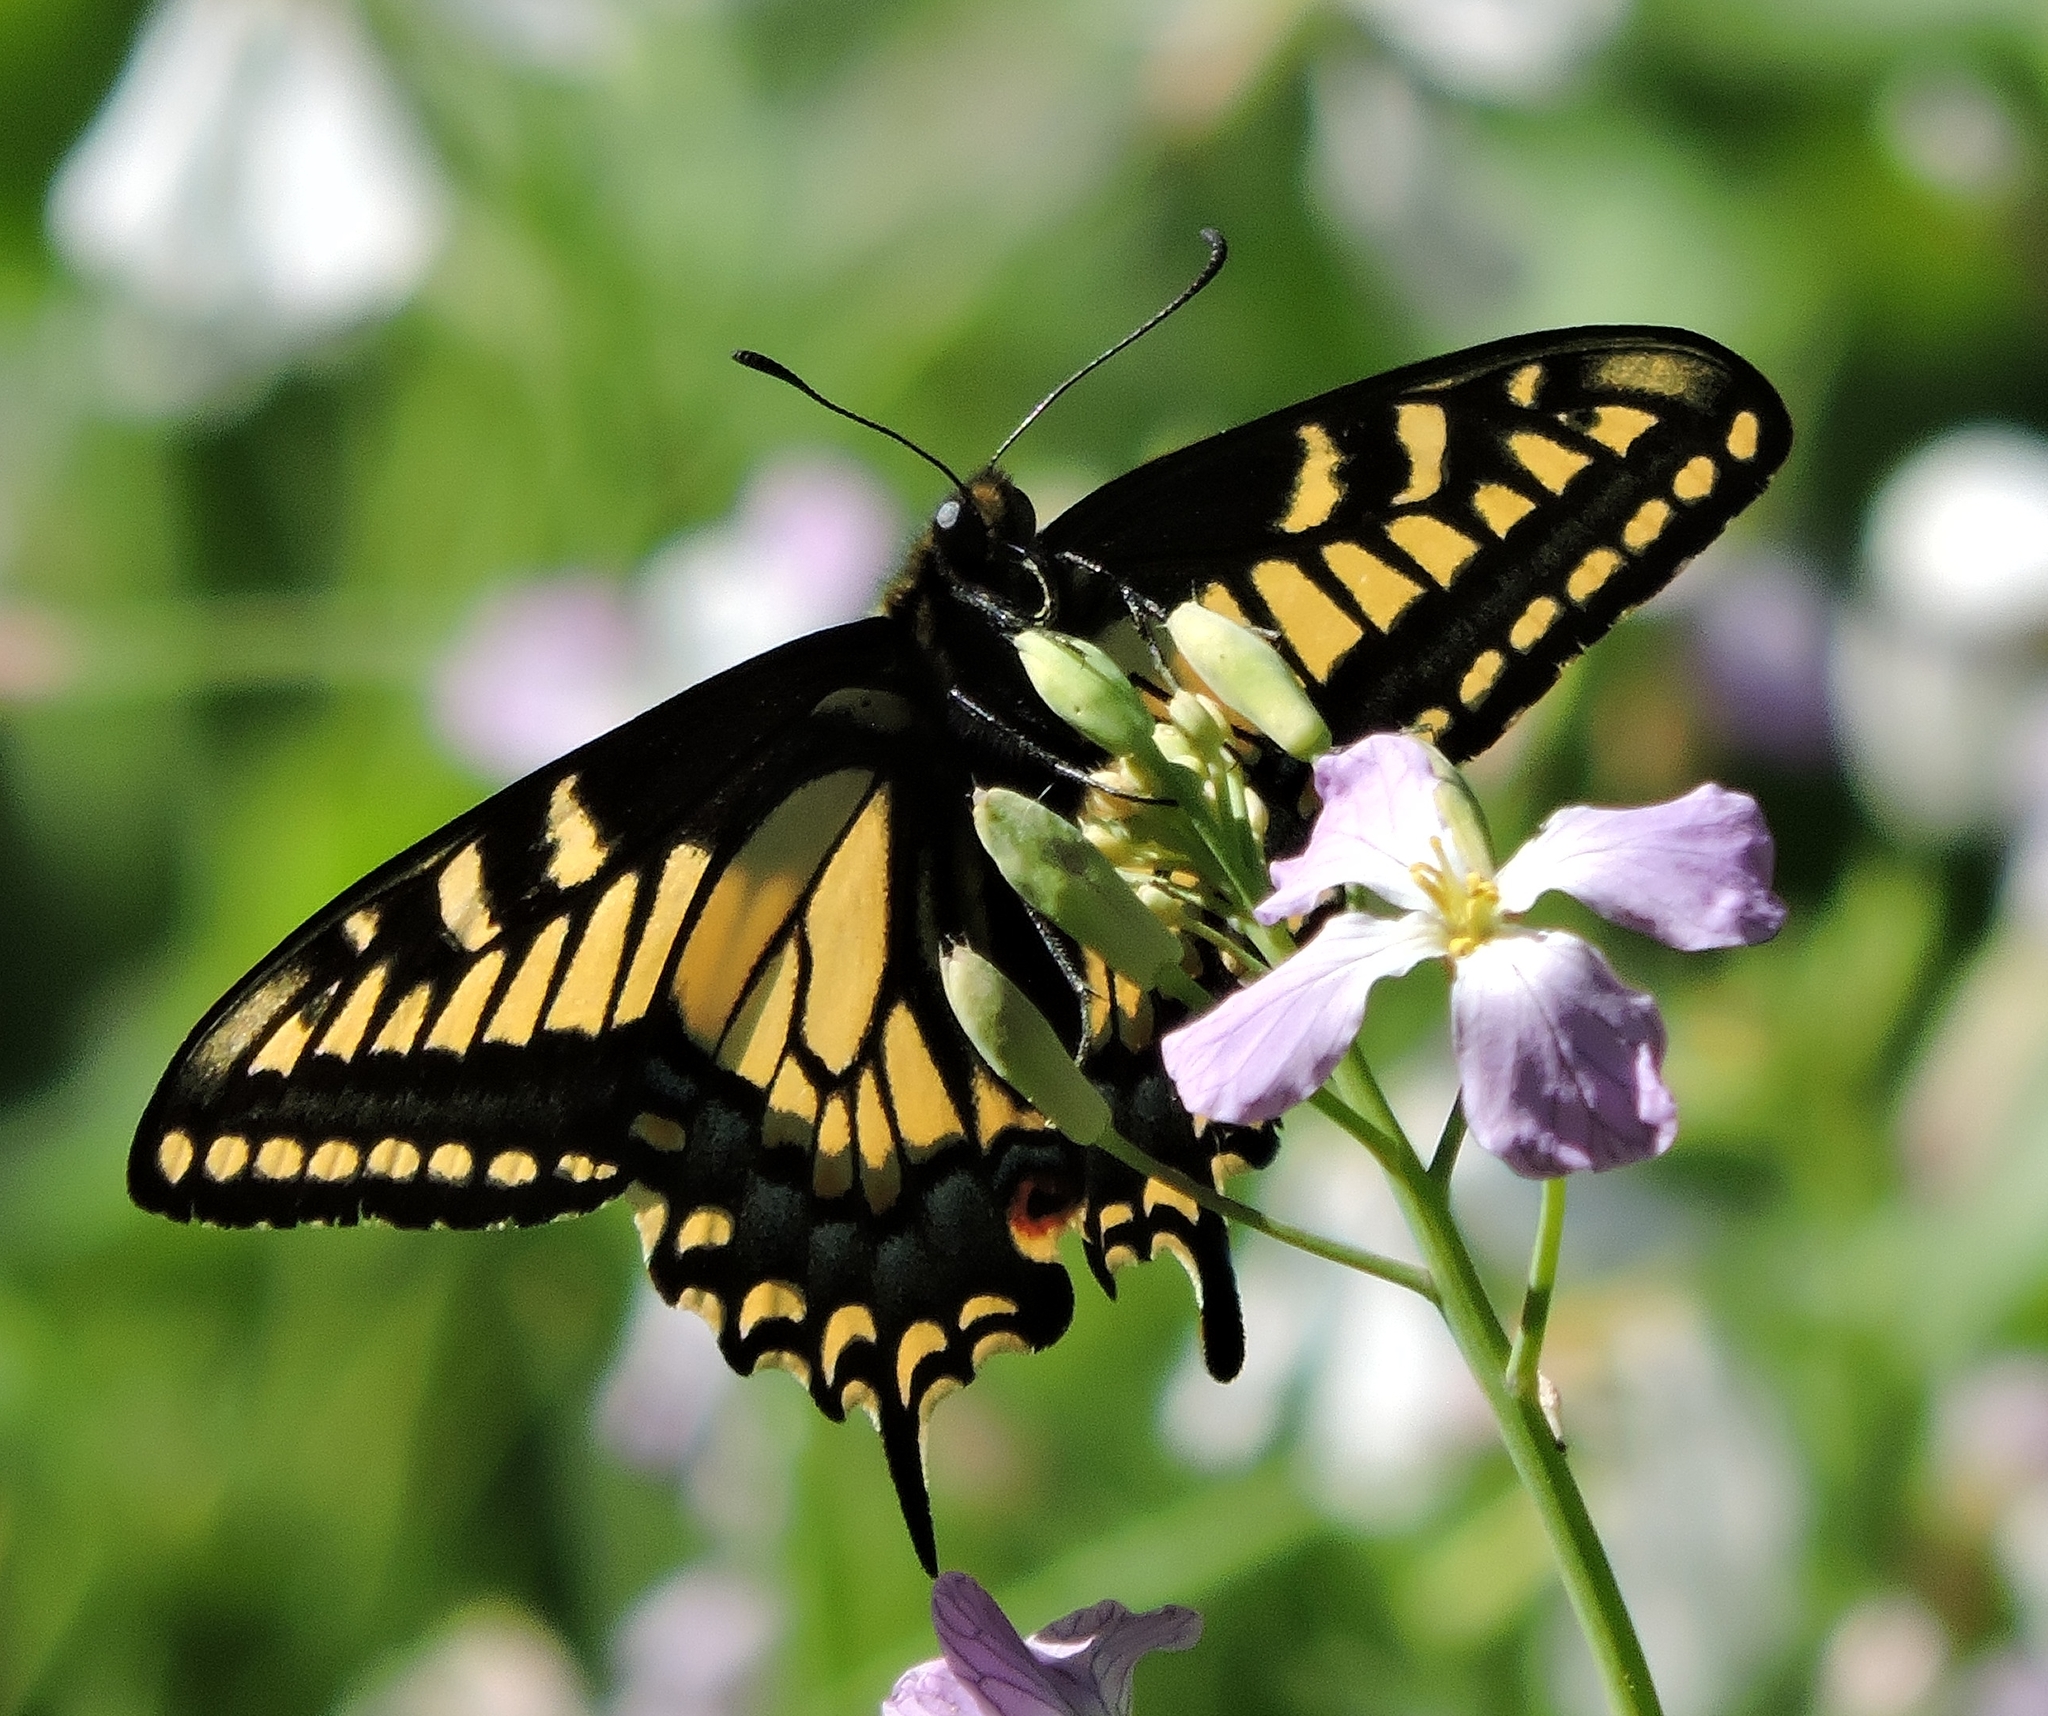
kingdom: Animalia
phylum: Arthropoda
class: Insecta
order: Lepidoptera
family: Papilionidae
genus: Papilio
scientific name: Papilio zelicaon
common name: Anise swallowtail
